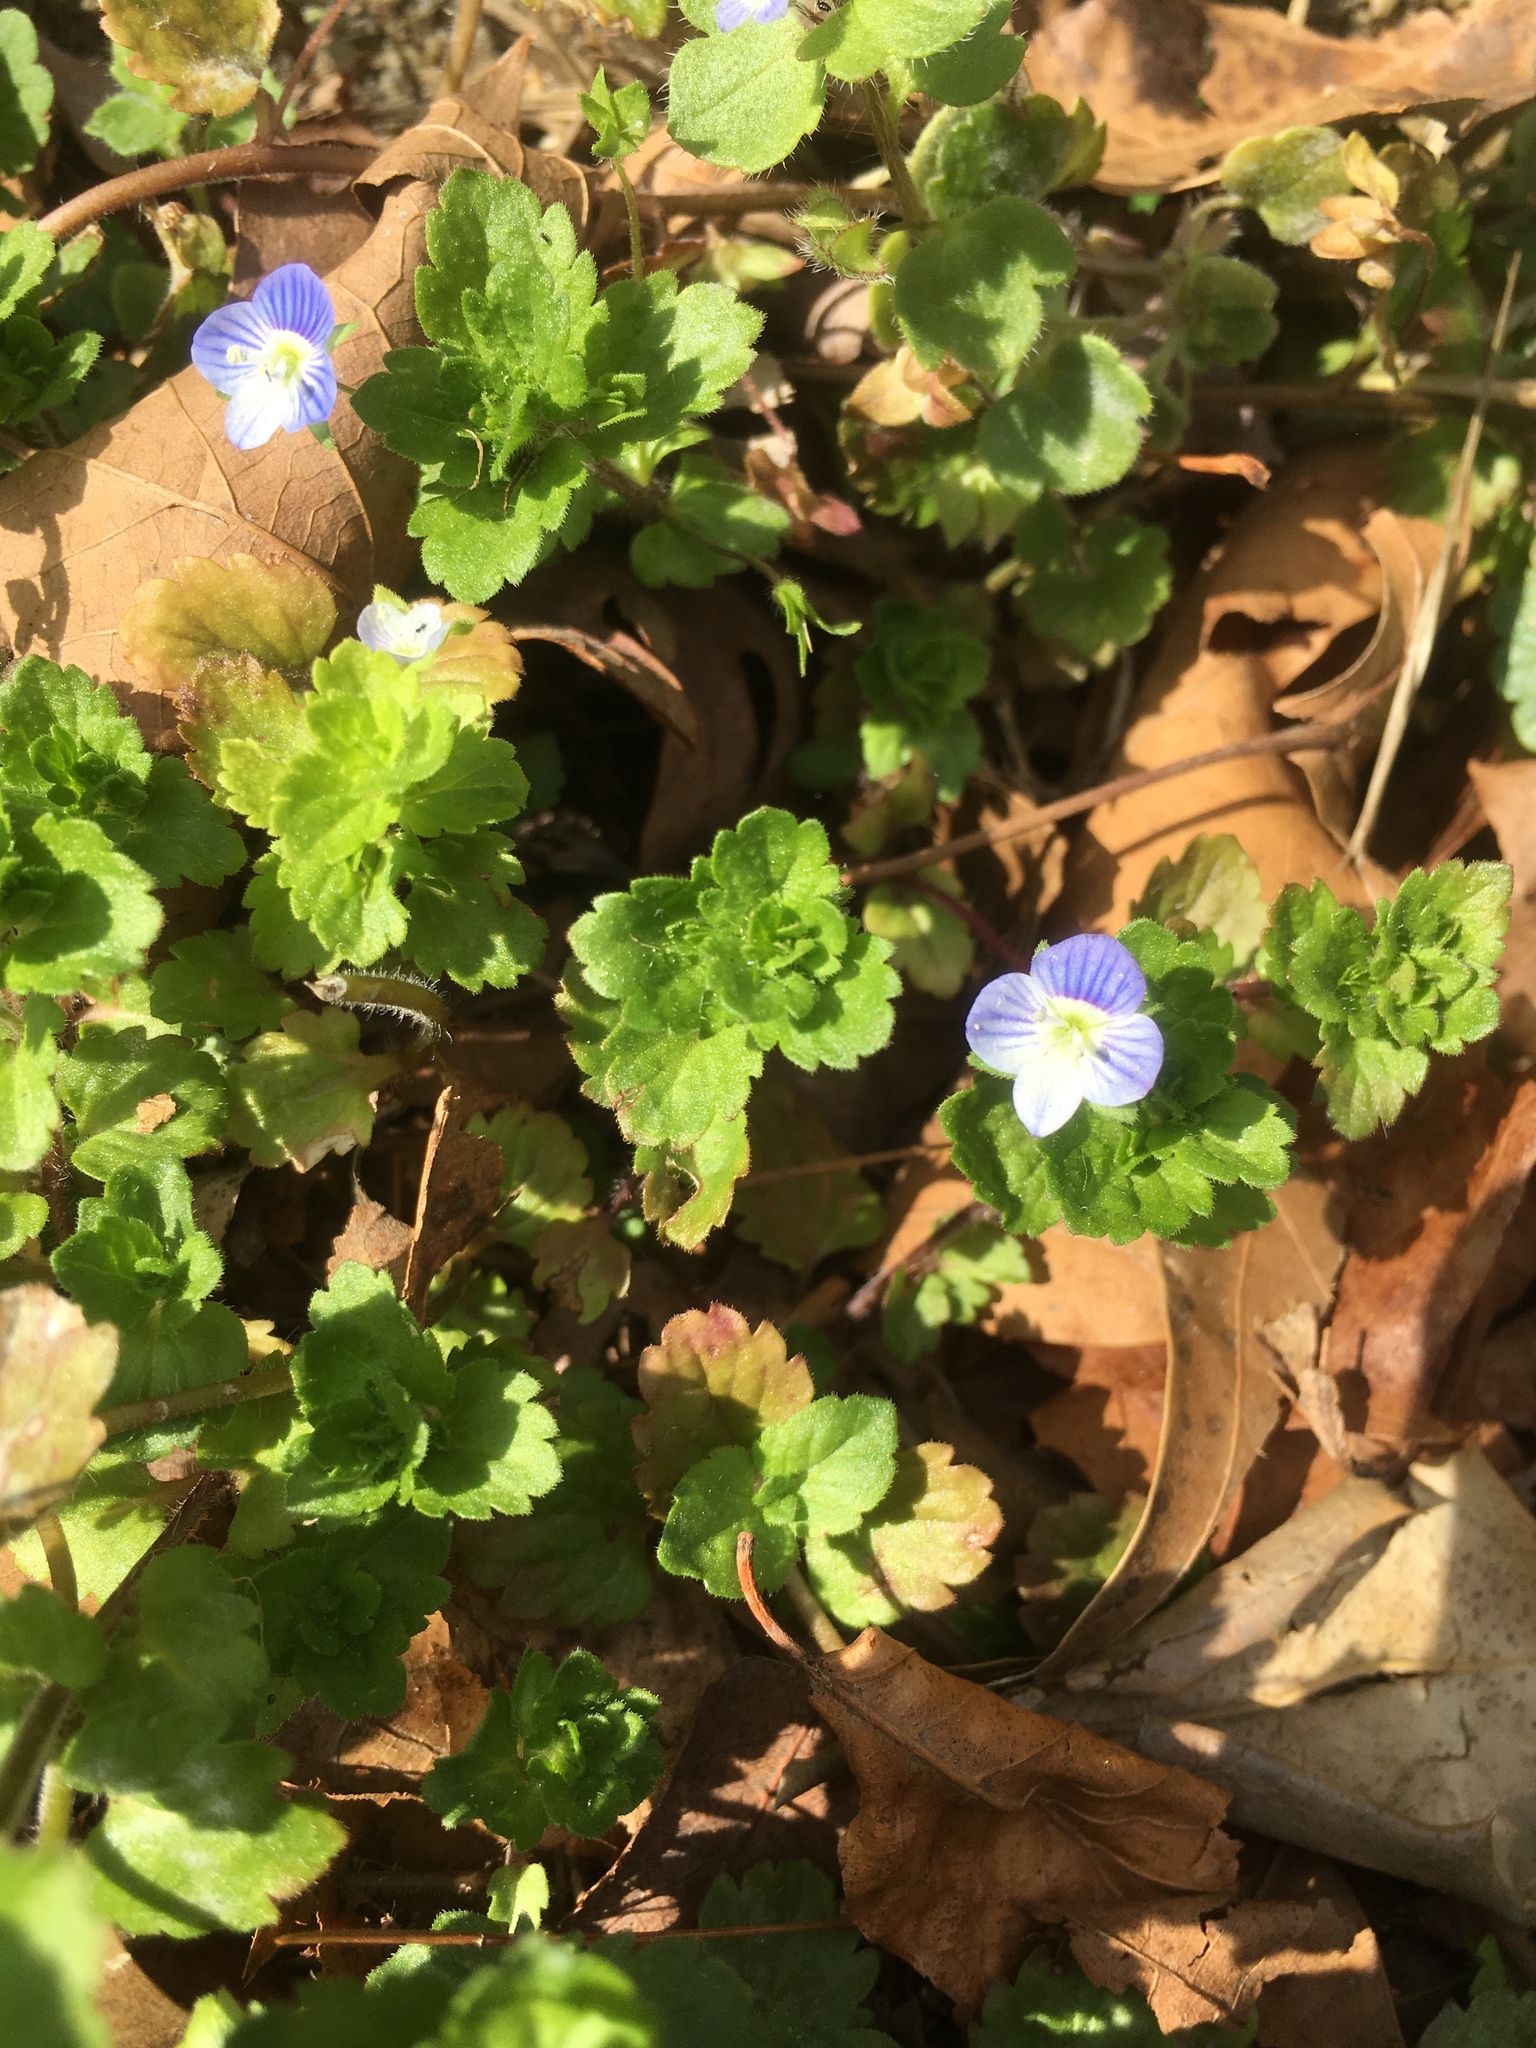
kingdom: Plantae
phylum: Tracheophyta
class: Magnoliopsida
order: Lamiales
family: Plantaginaceae
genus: Veronica
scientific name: Veronica persica
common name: Common field-speedwell
